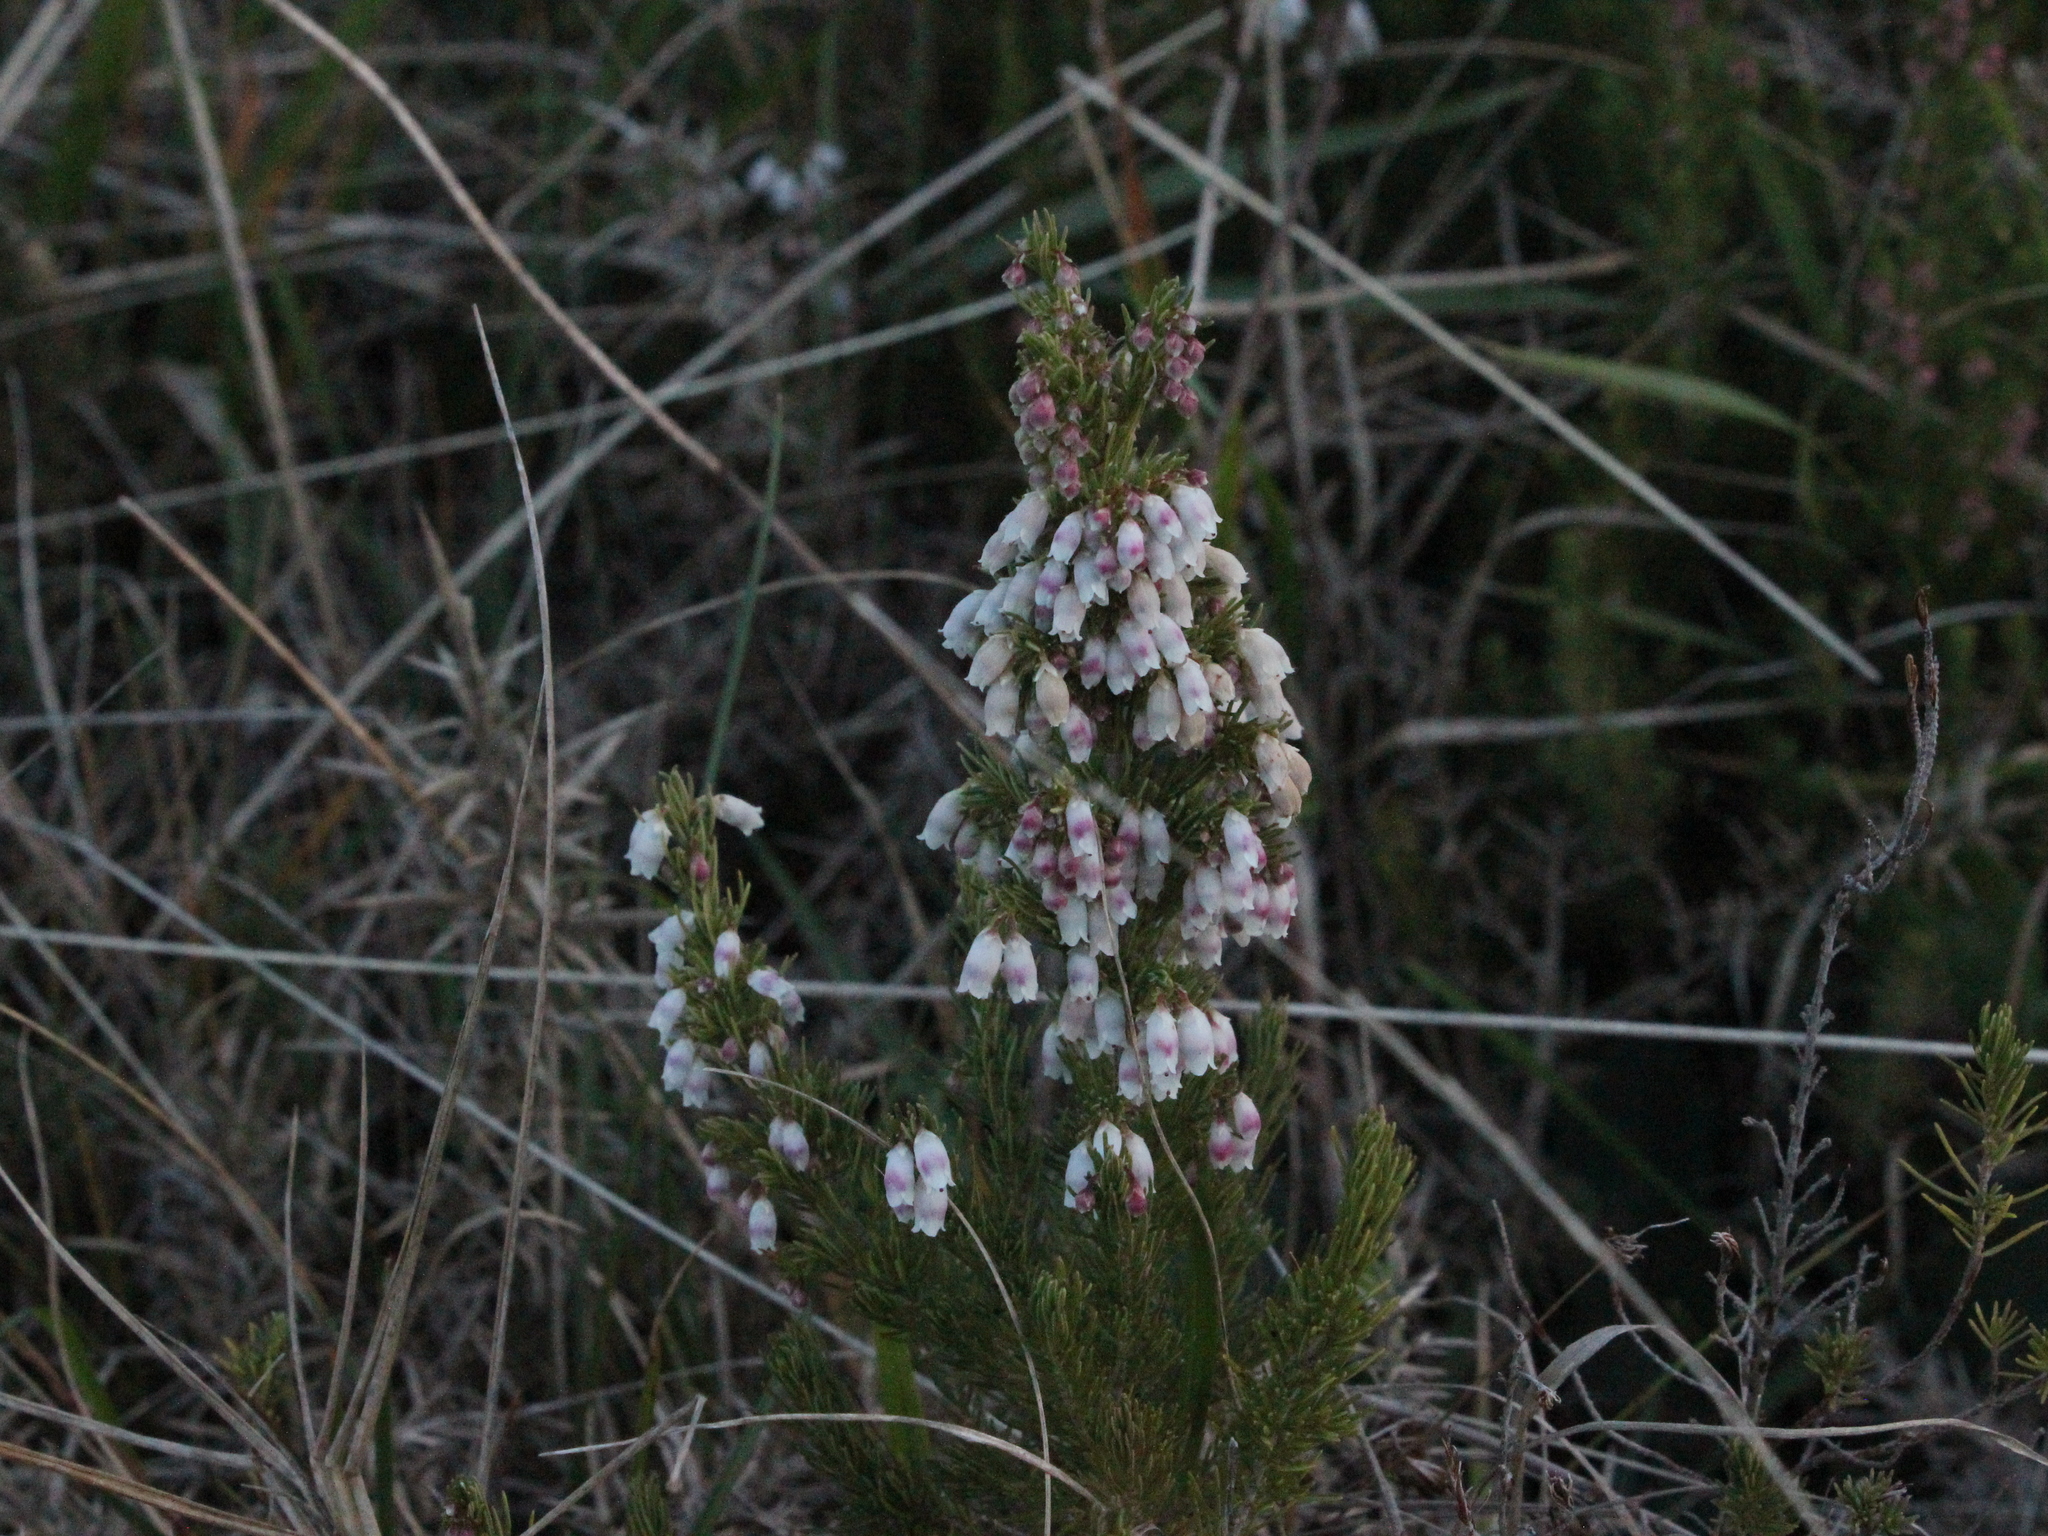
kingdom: Plantae
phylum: Tracheophyta
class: Magnoliopsida
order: Ericales
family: Ericaceae
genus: Erica
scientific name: Erica lusitanica
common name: Spanish heath
